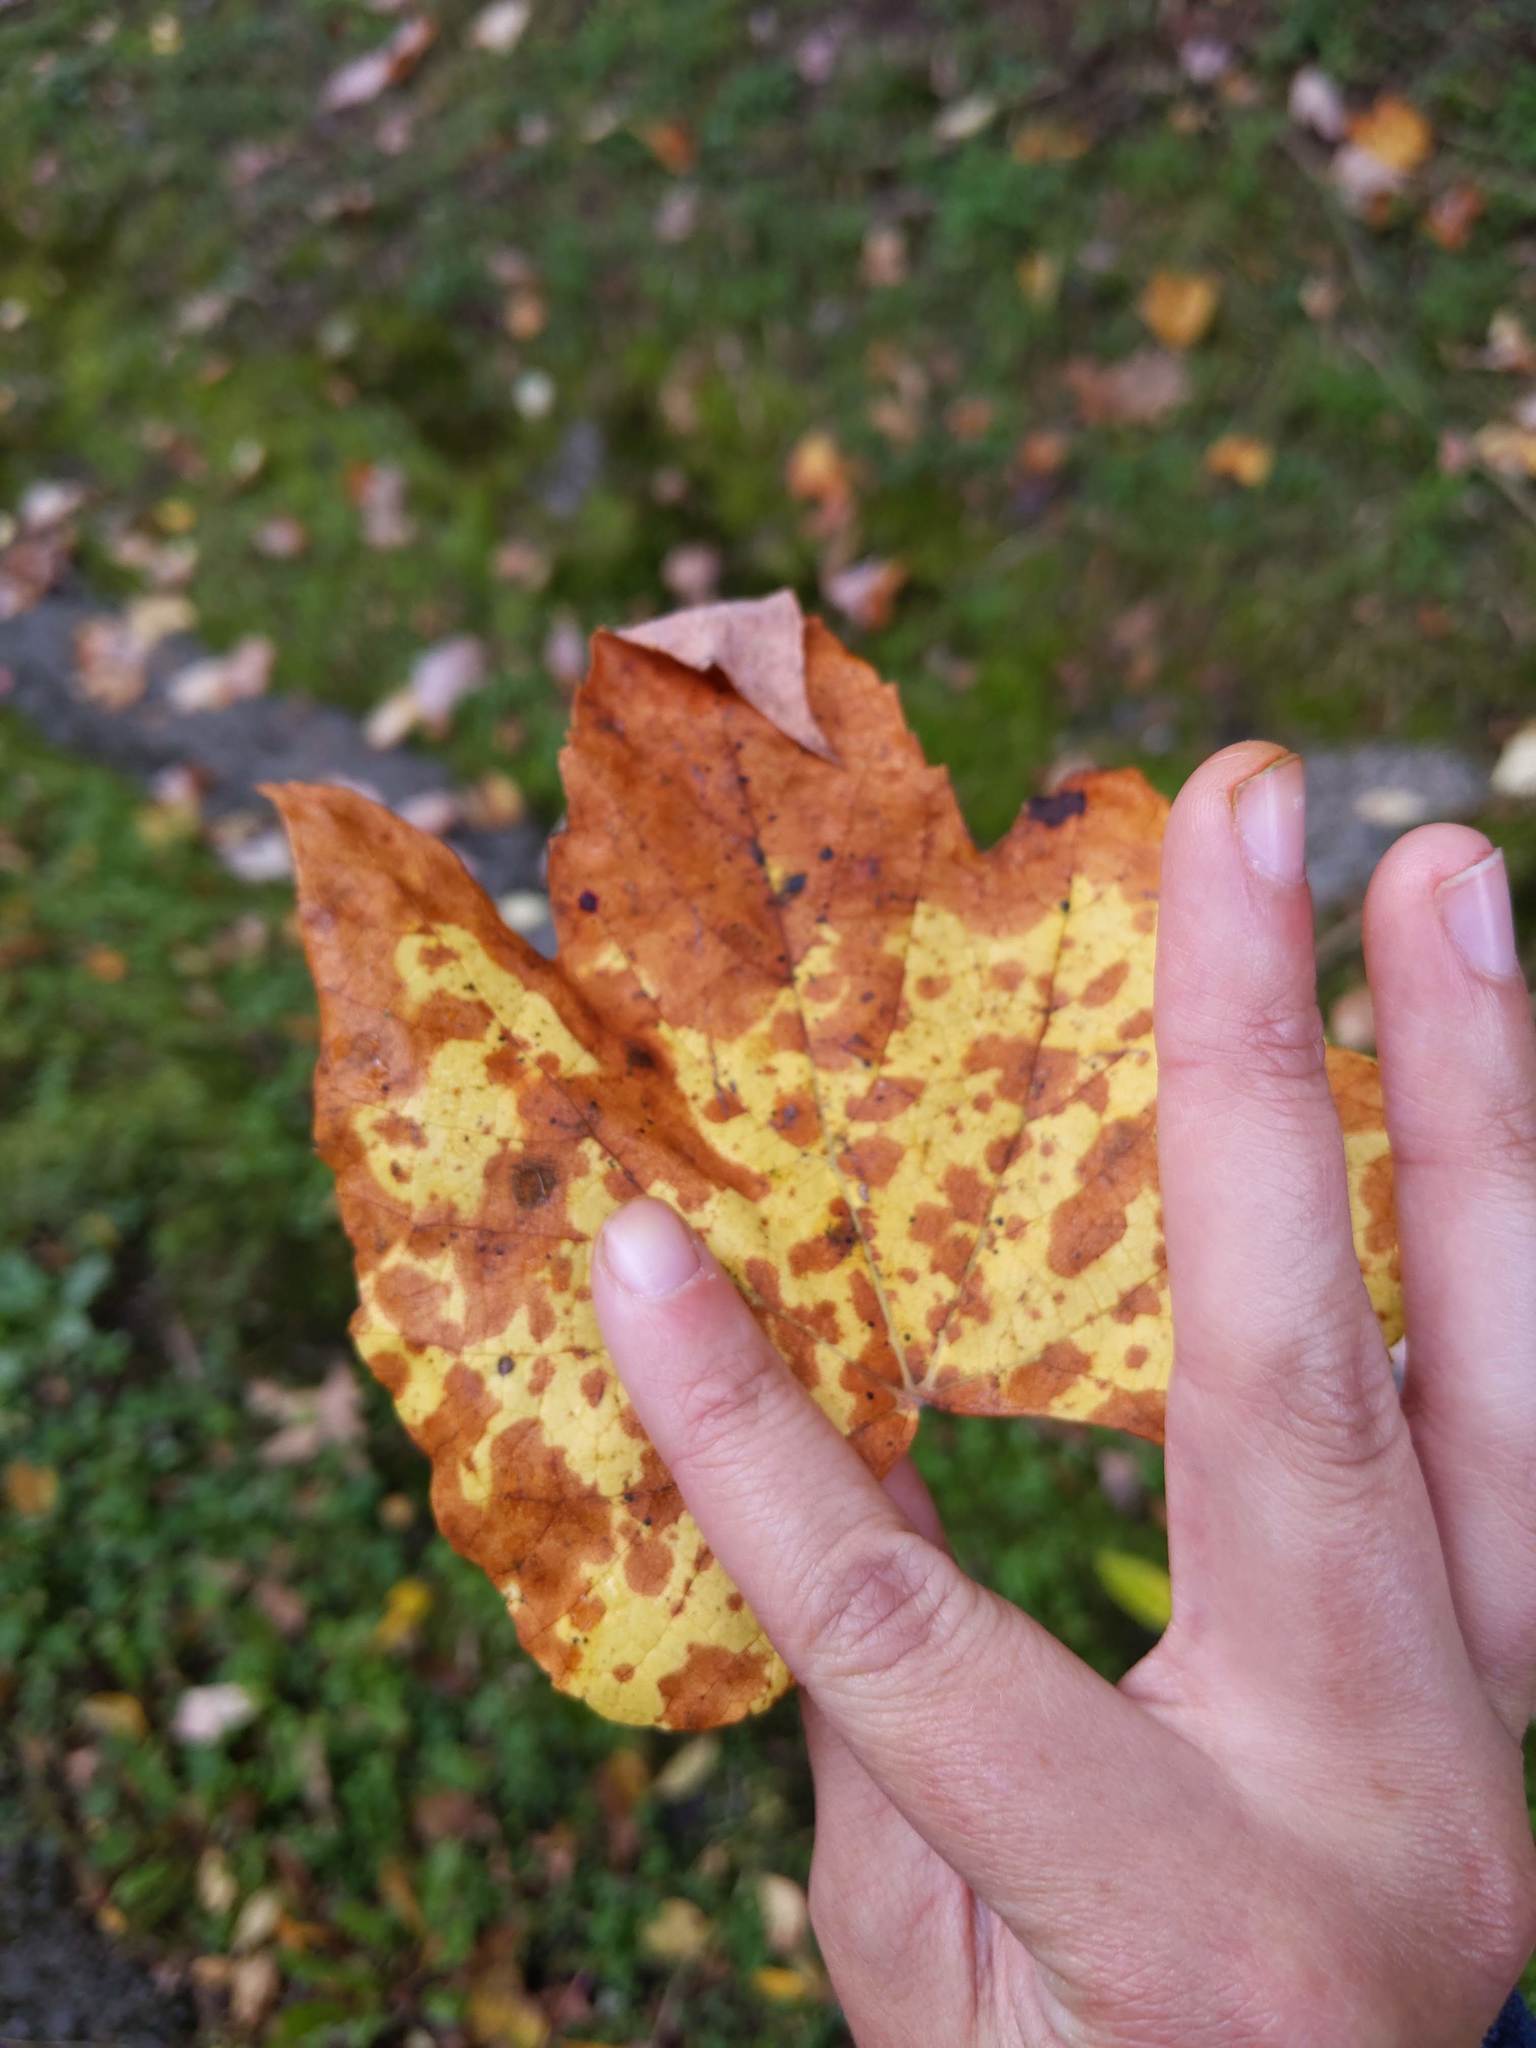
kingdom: Plantae
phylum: Tracheophyta
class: Magnoliopsida
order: Sapindales
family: Sapindaceae
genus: Acer
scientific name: Acer rubrum
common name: Red maple
